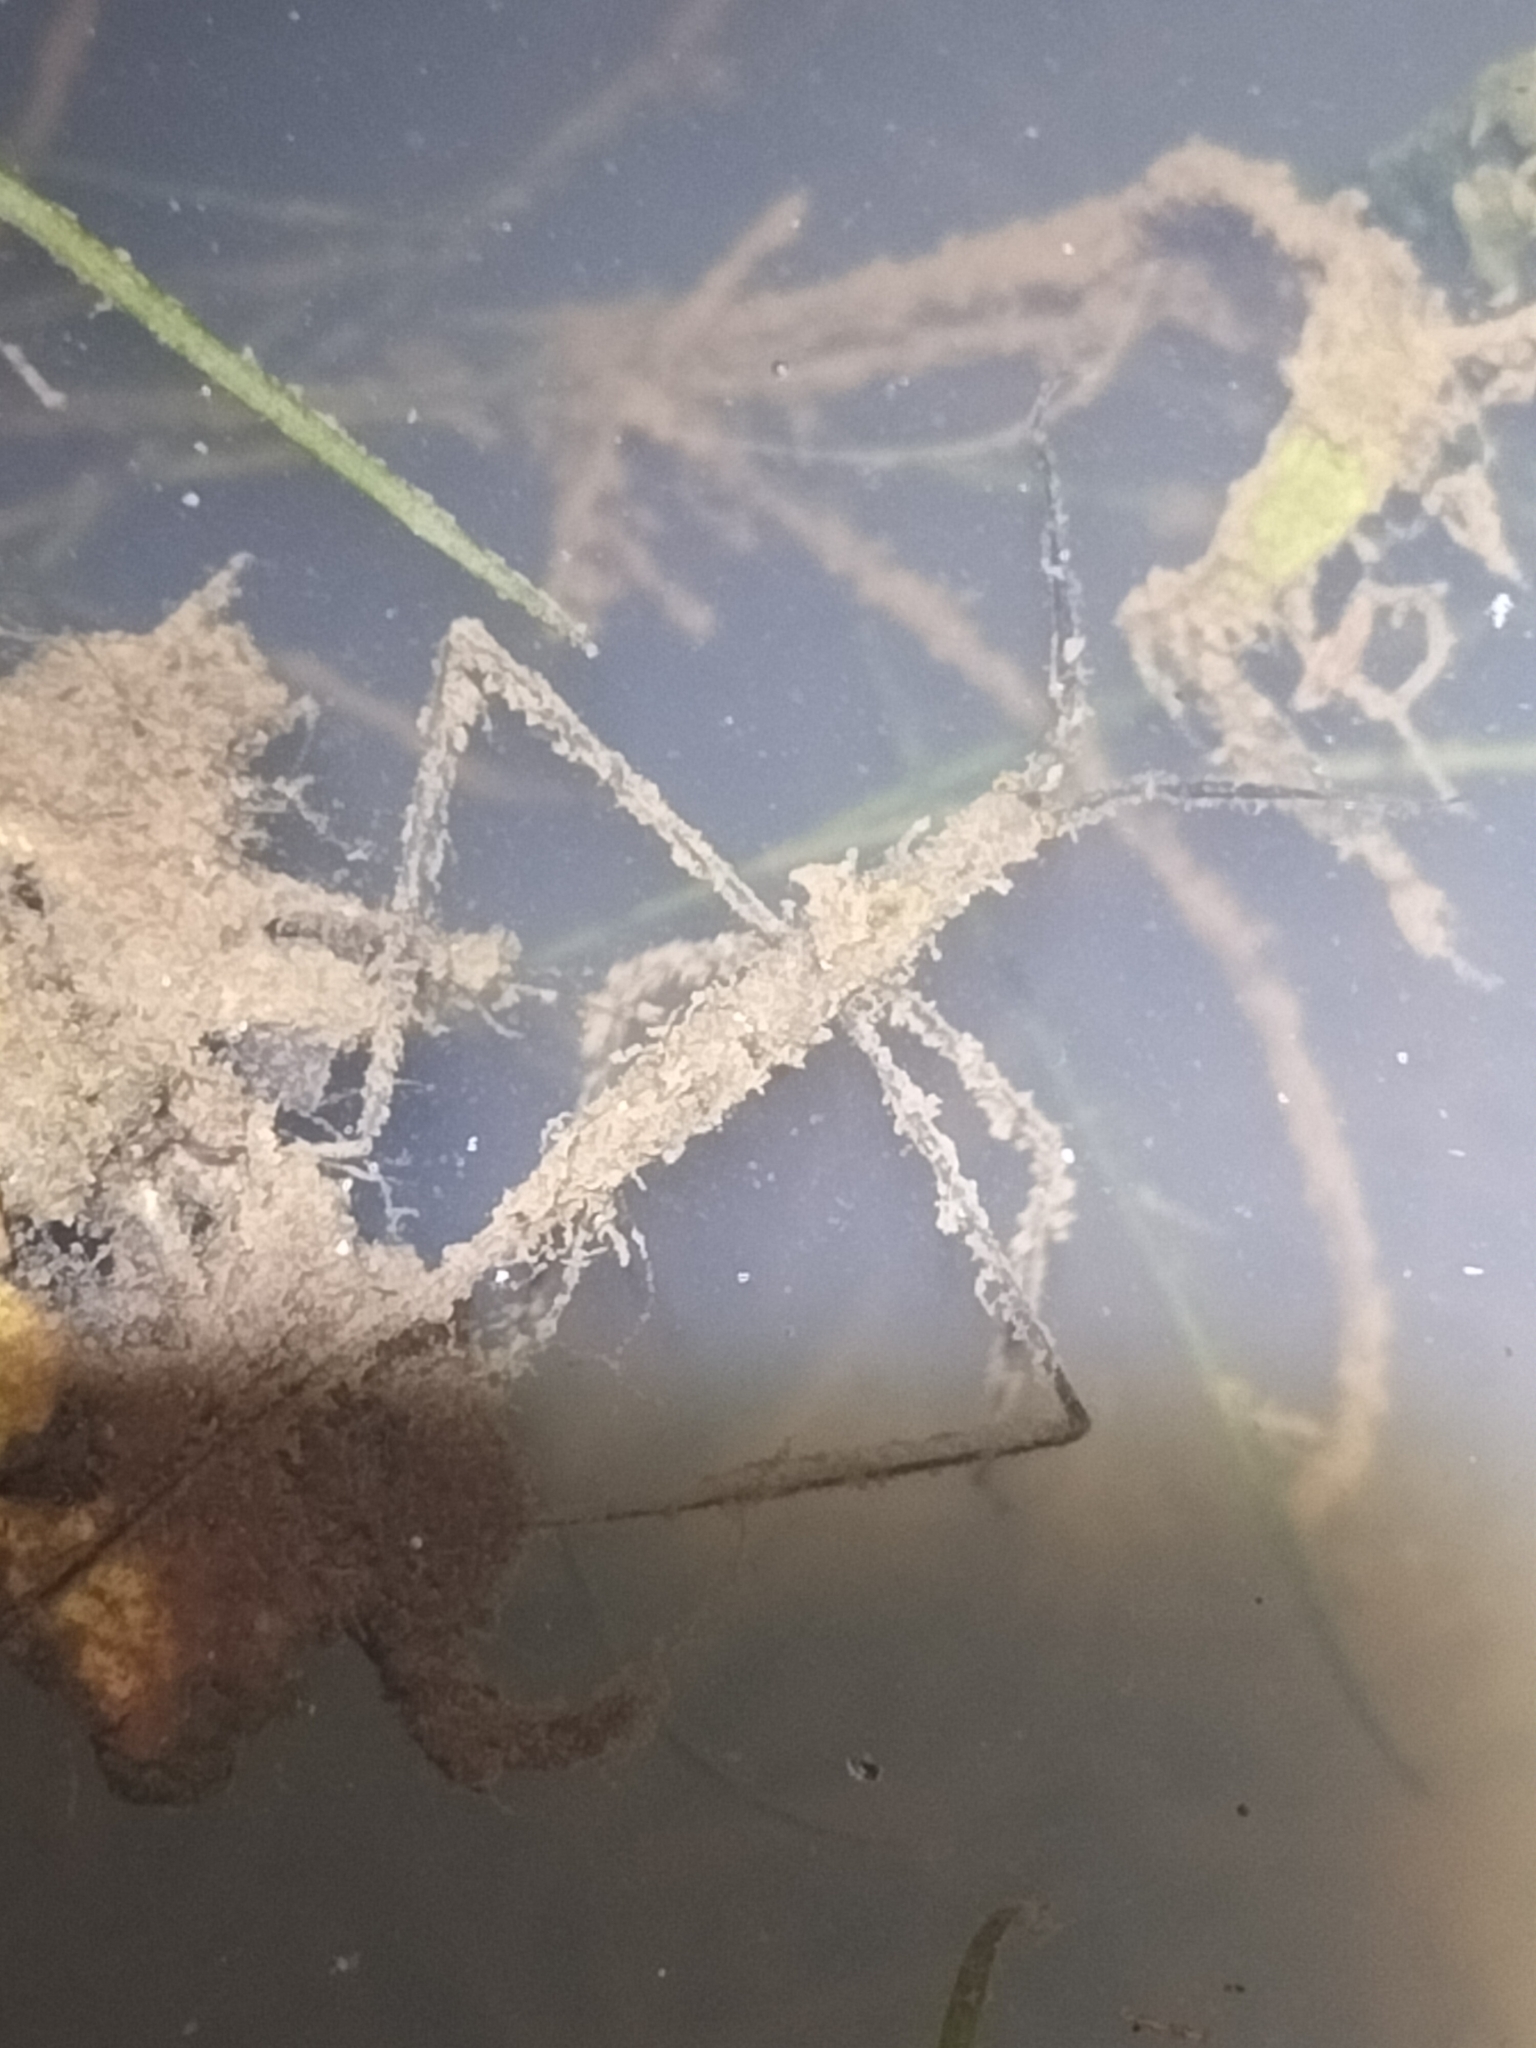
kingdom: Animalia
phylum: Arthropoda
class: Insecta
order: Hemiptera
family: Nepidae
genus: Ranatra
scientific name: Ranatra
